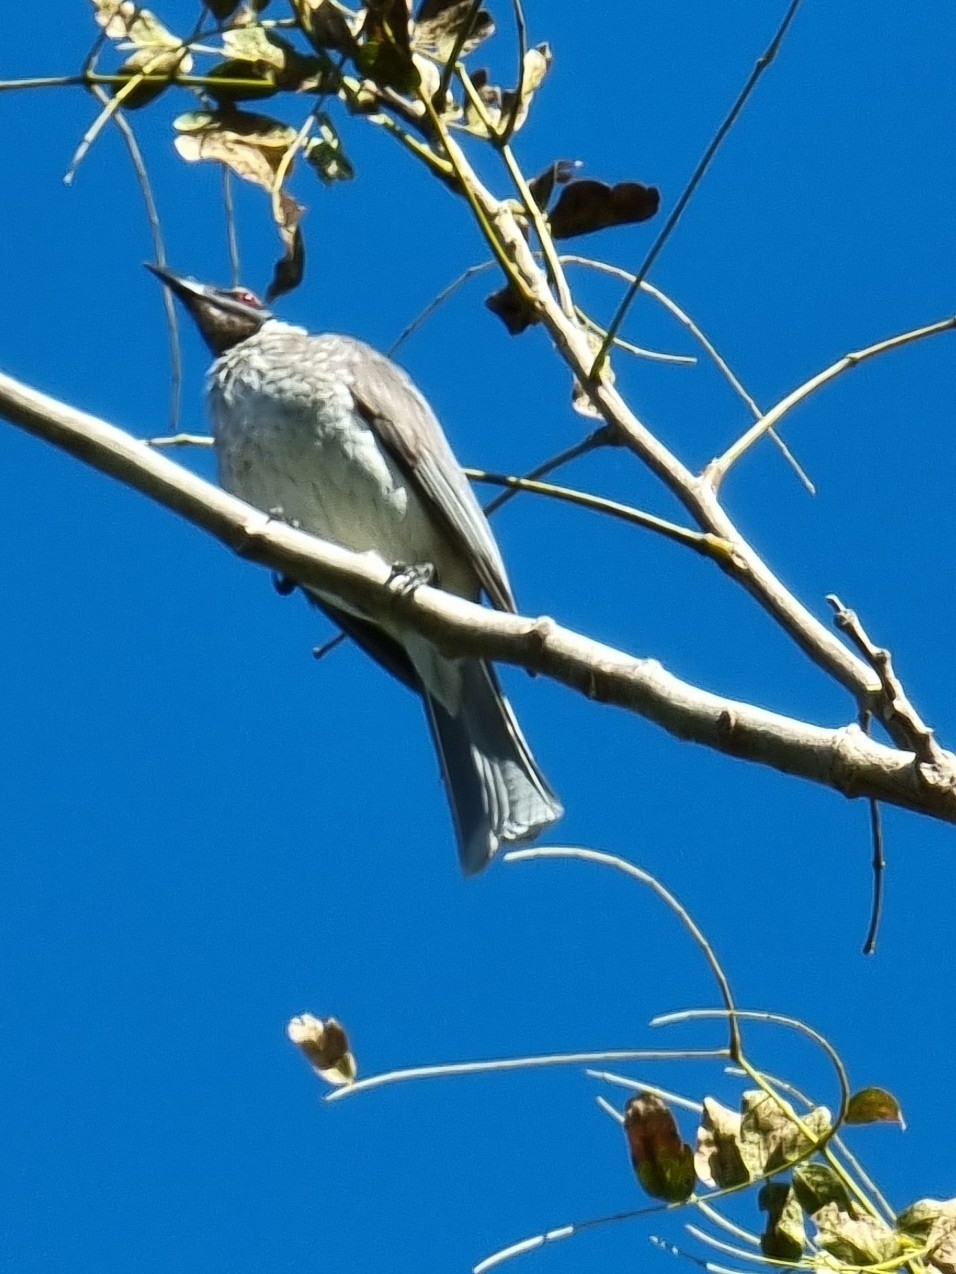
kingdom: Animalia
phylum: Chordata
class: Aves
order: Passeriformes
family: Meliphagidae
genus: Philemon
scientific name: Philemon corniculatus
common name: Noisy friarbird
